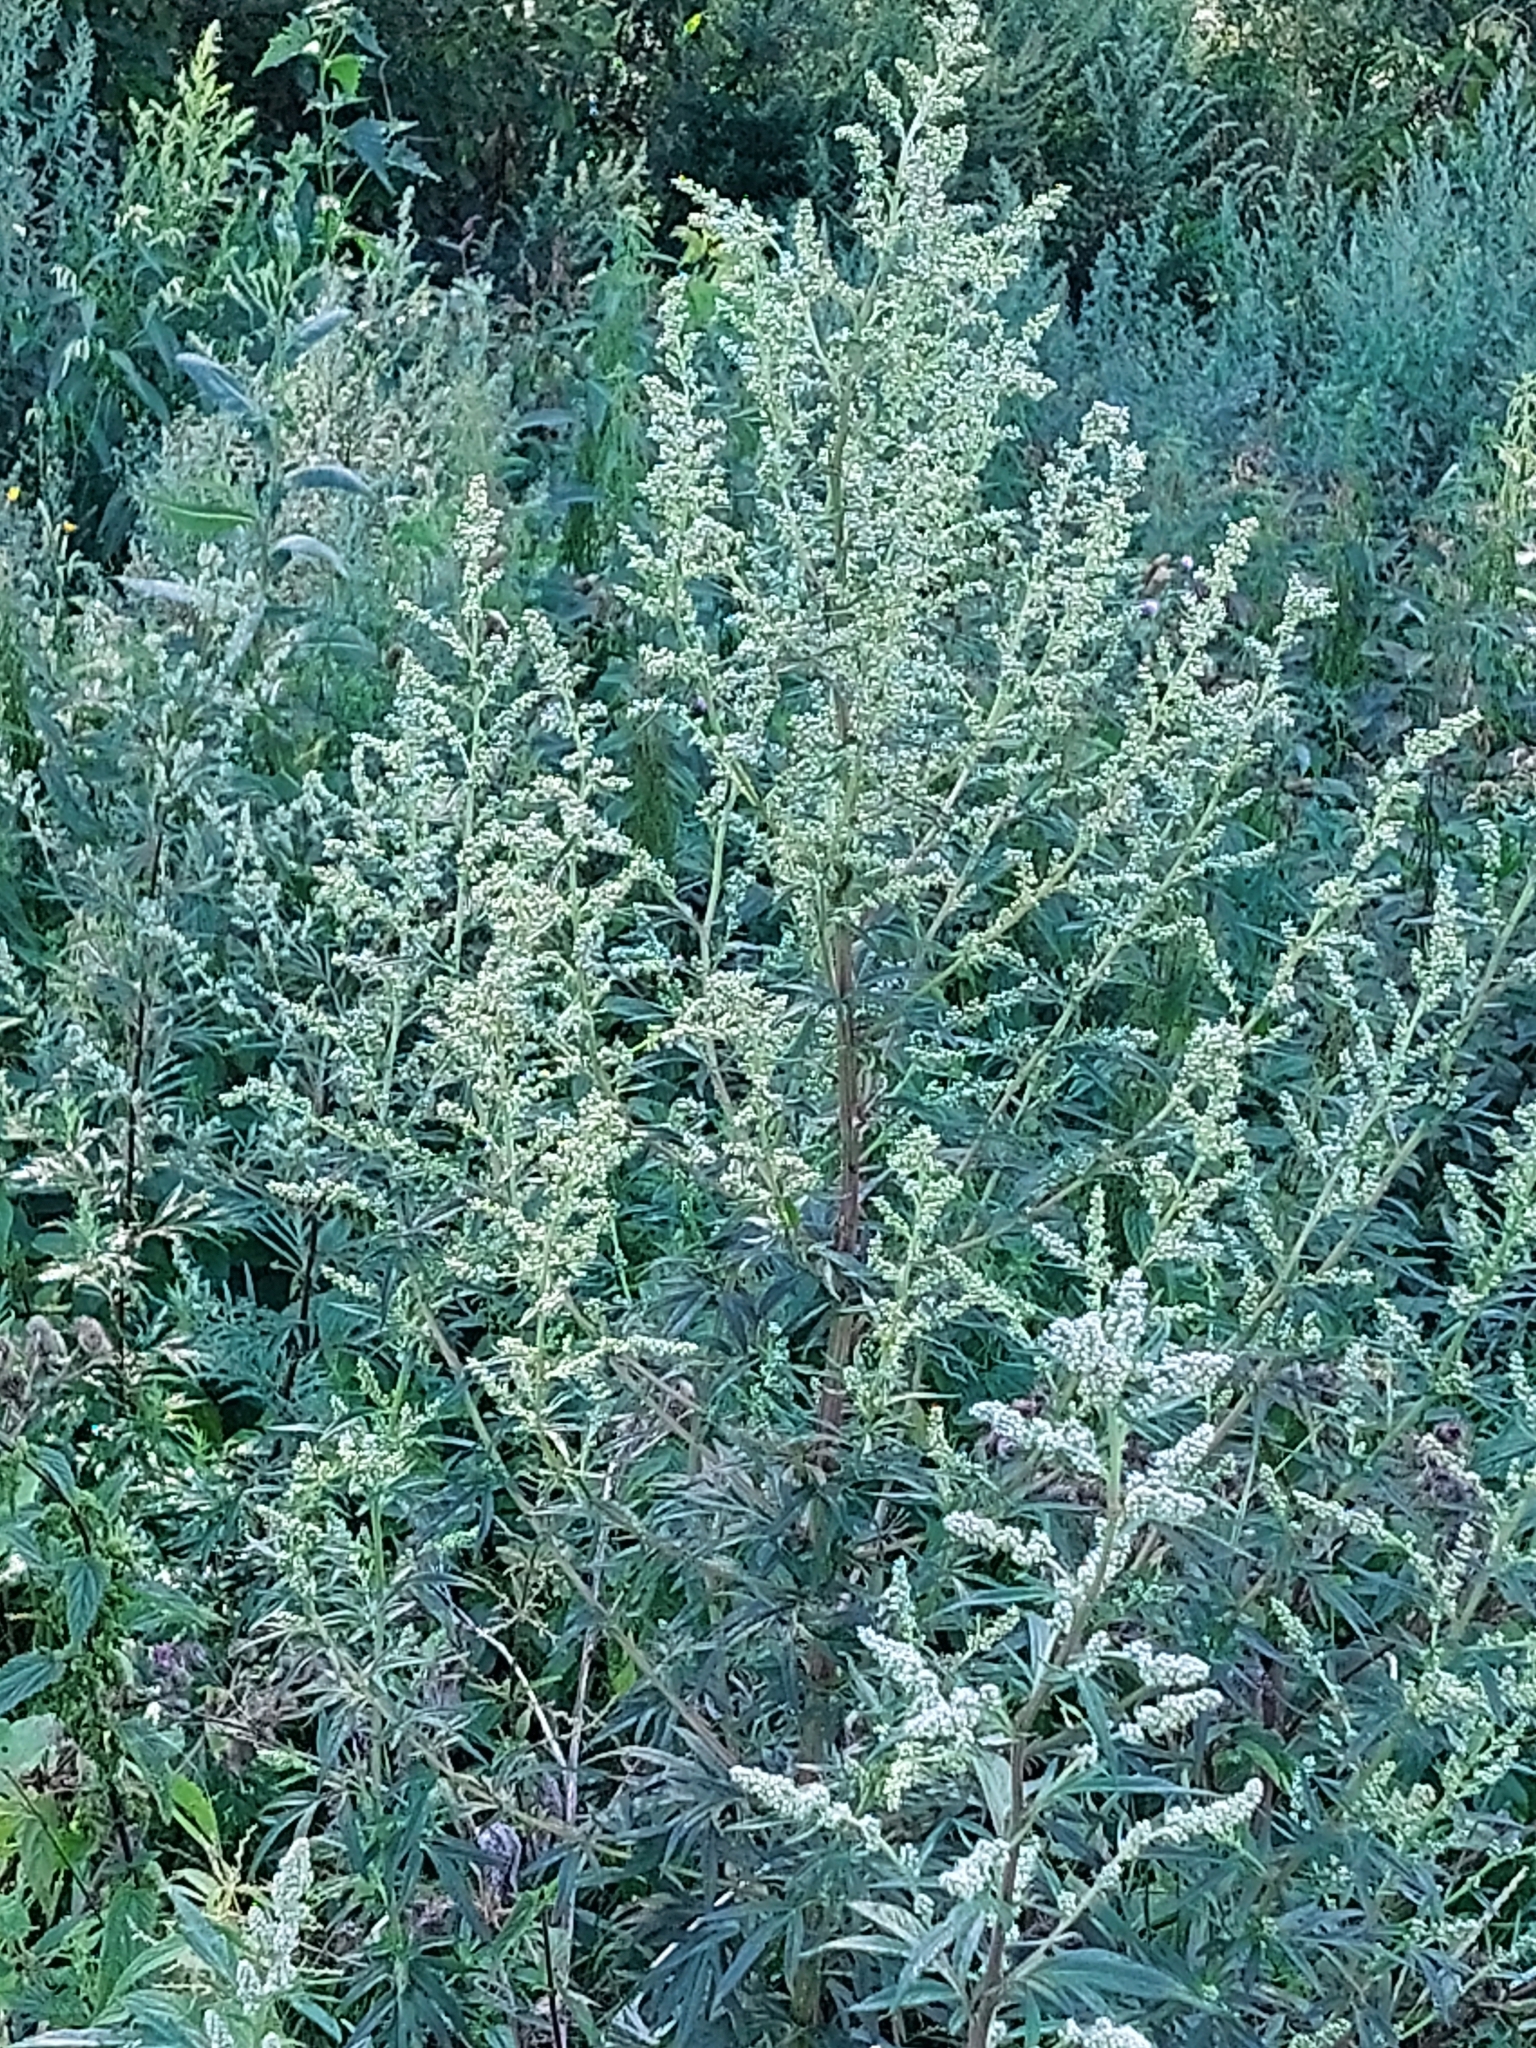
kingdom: Plantae
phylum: Tracheophyta
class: Magnoliopsida
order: Asterales
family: Asteraceae
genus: Artemisia
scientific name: Artemisia vulgaris
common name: Mugwort
